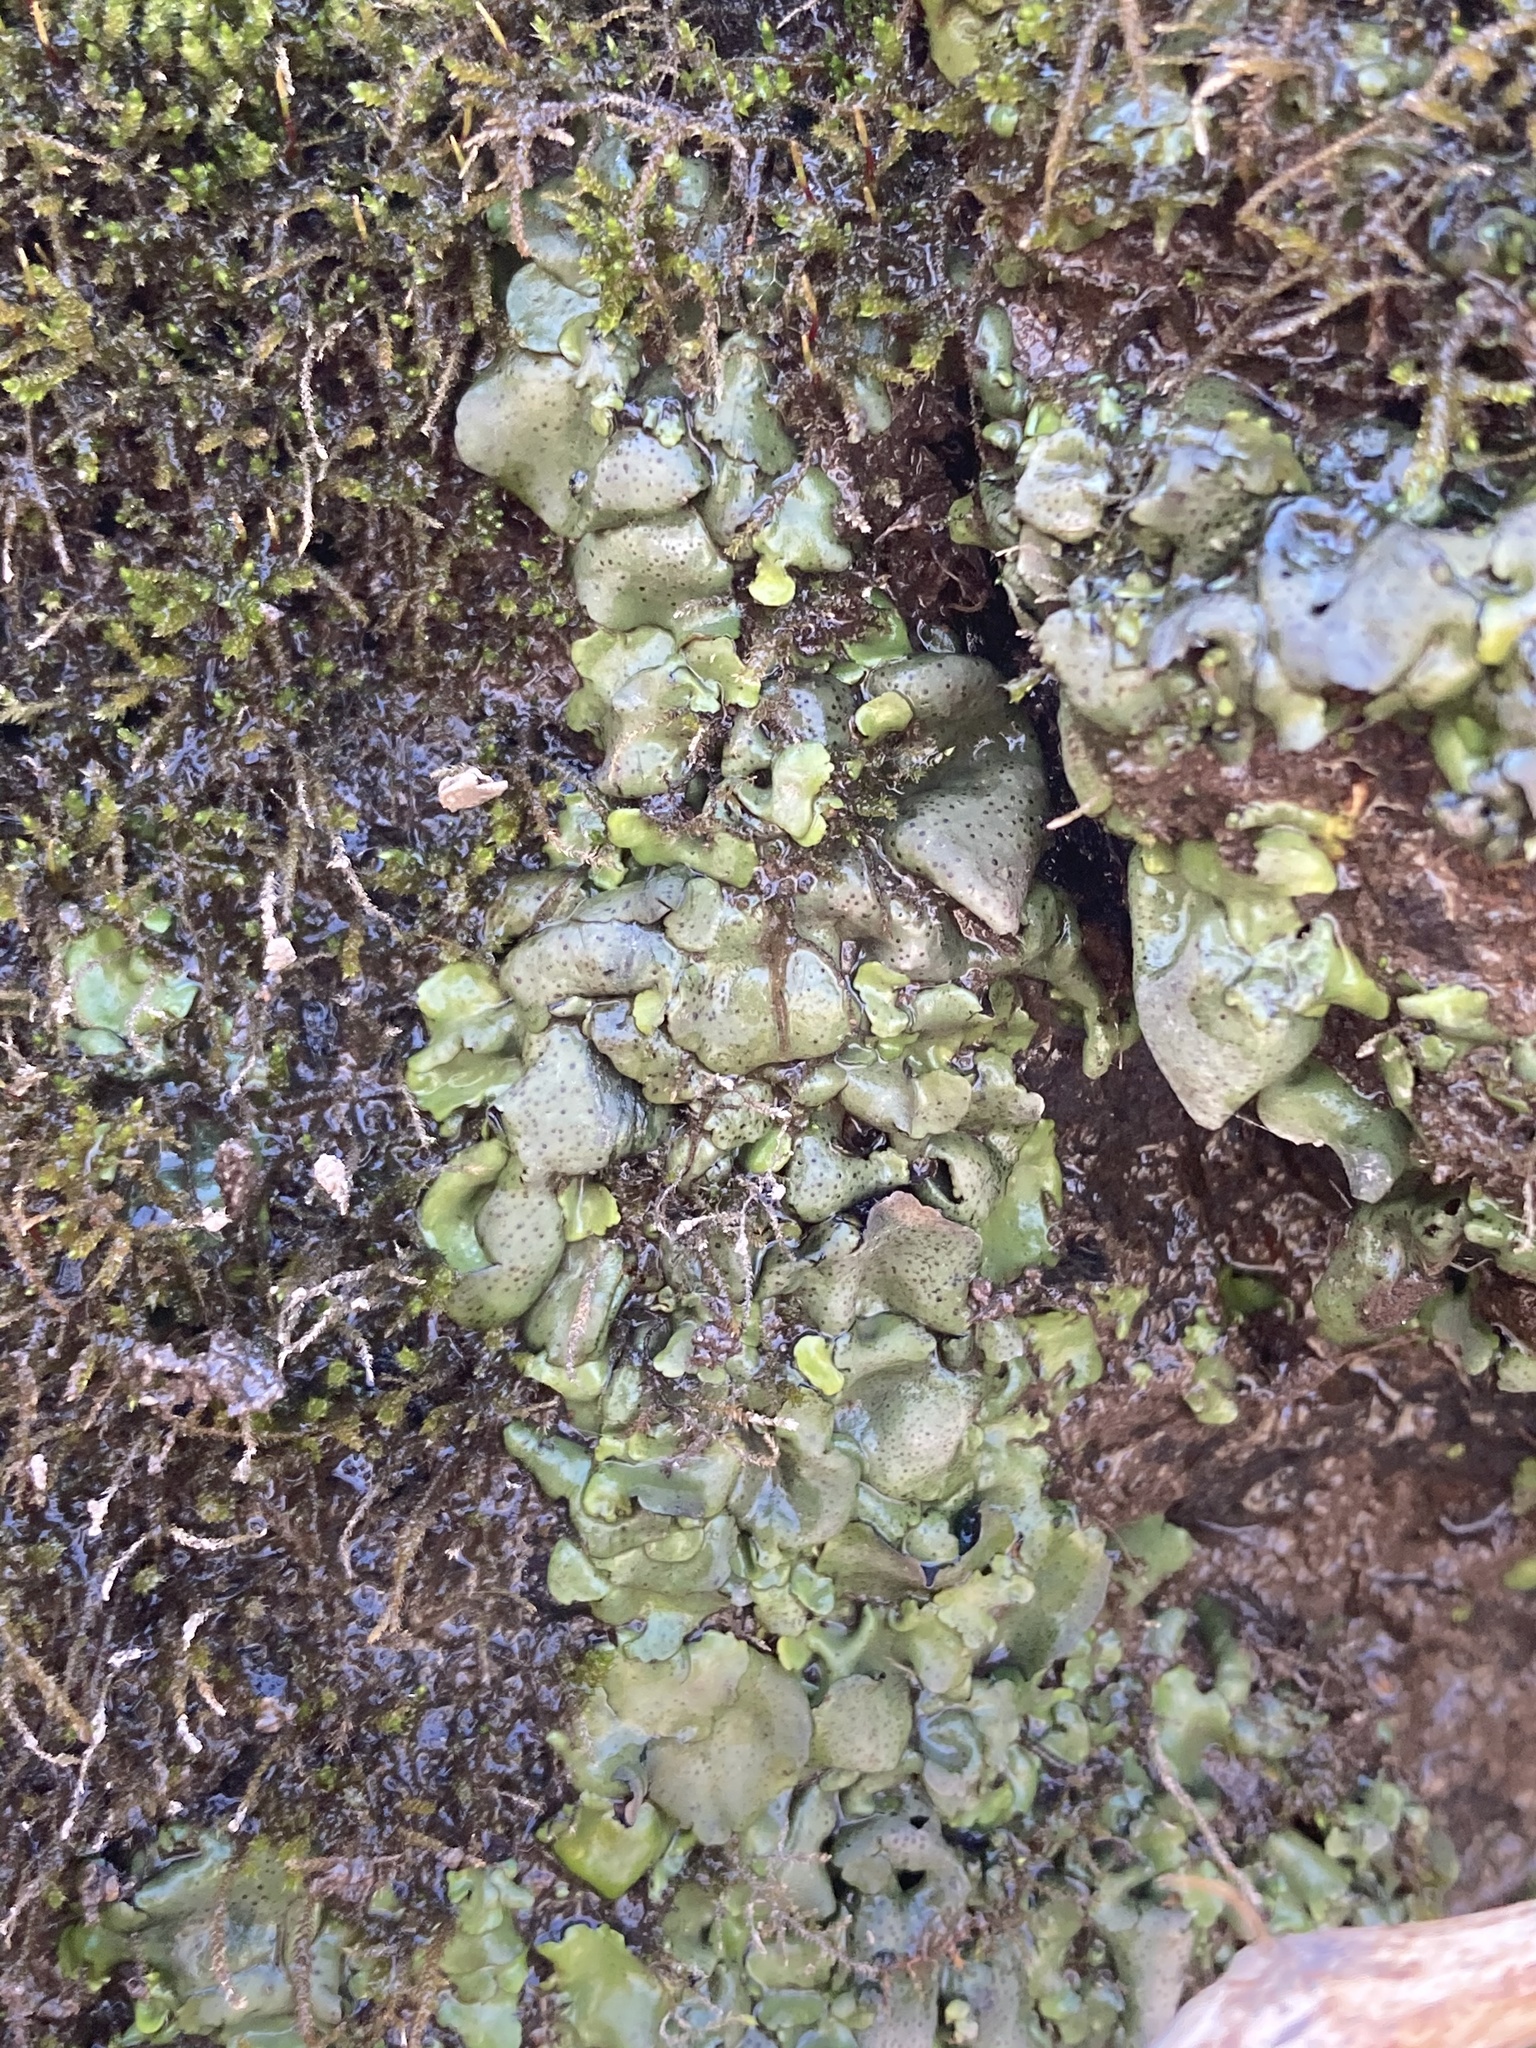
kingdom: Fungi
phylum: Ascomycota
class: Eurotiomycetes
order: Verrucariales
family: Verrucariaceae
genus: Dermatocarpon
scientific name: Dermatocarpon luridum
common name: Brook stippleback lichen
